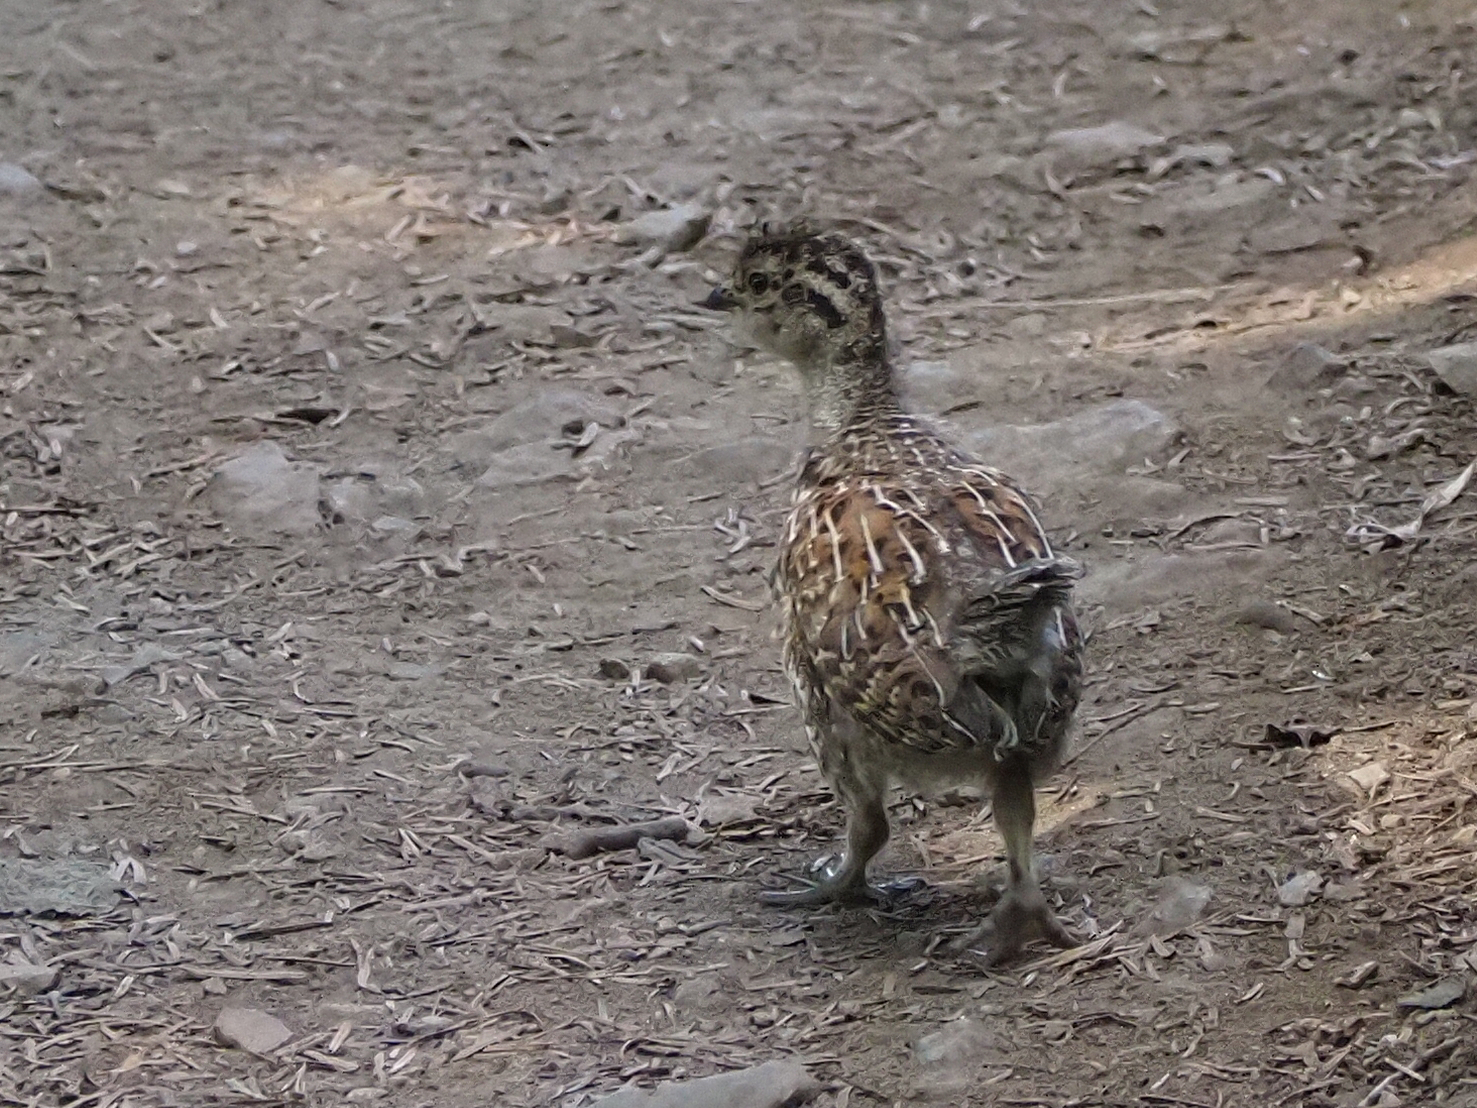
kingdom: Animalia
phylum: Chordata
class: Aves
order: Galliformes
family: Phasianidae
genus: Dendragapus
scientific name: Dendragapus fuliginosus
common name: Sooty grouse
